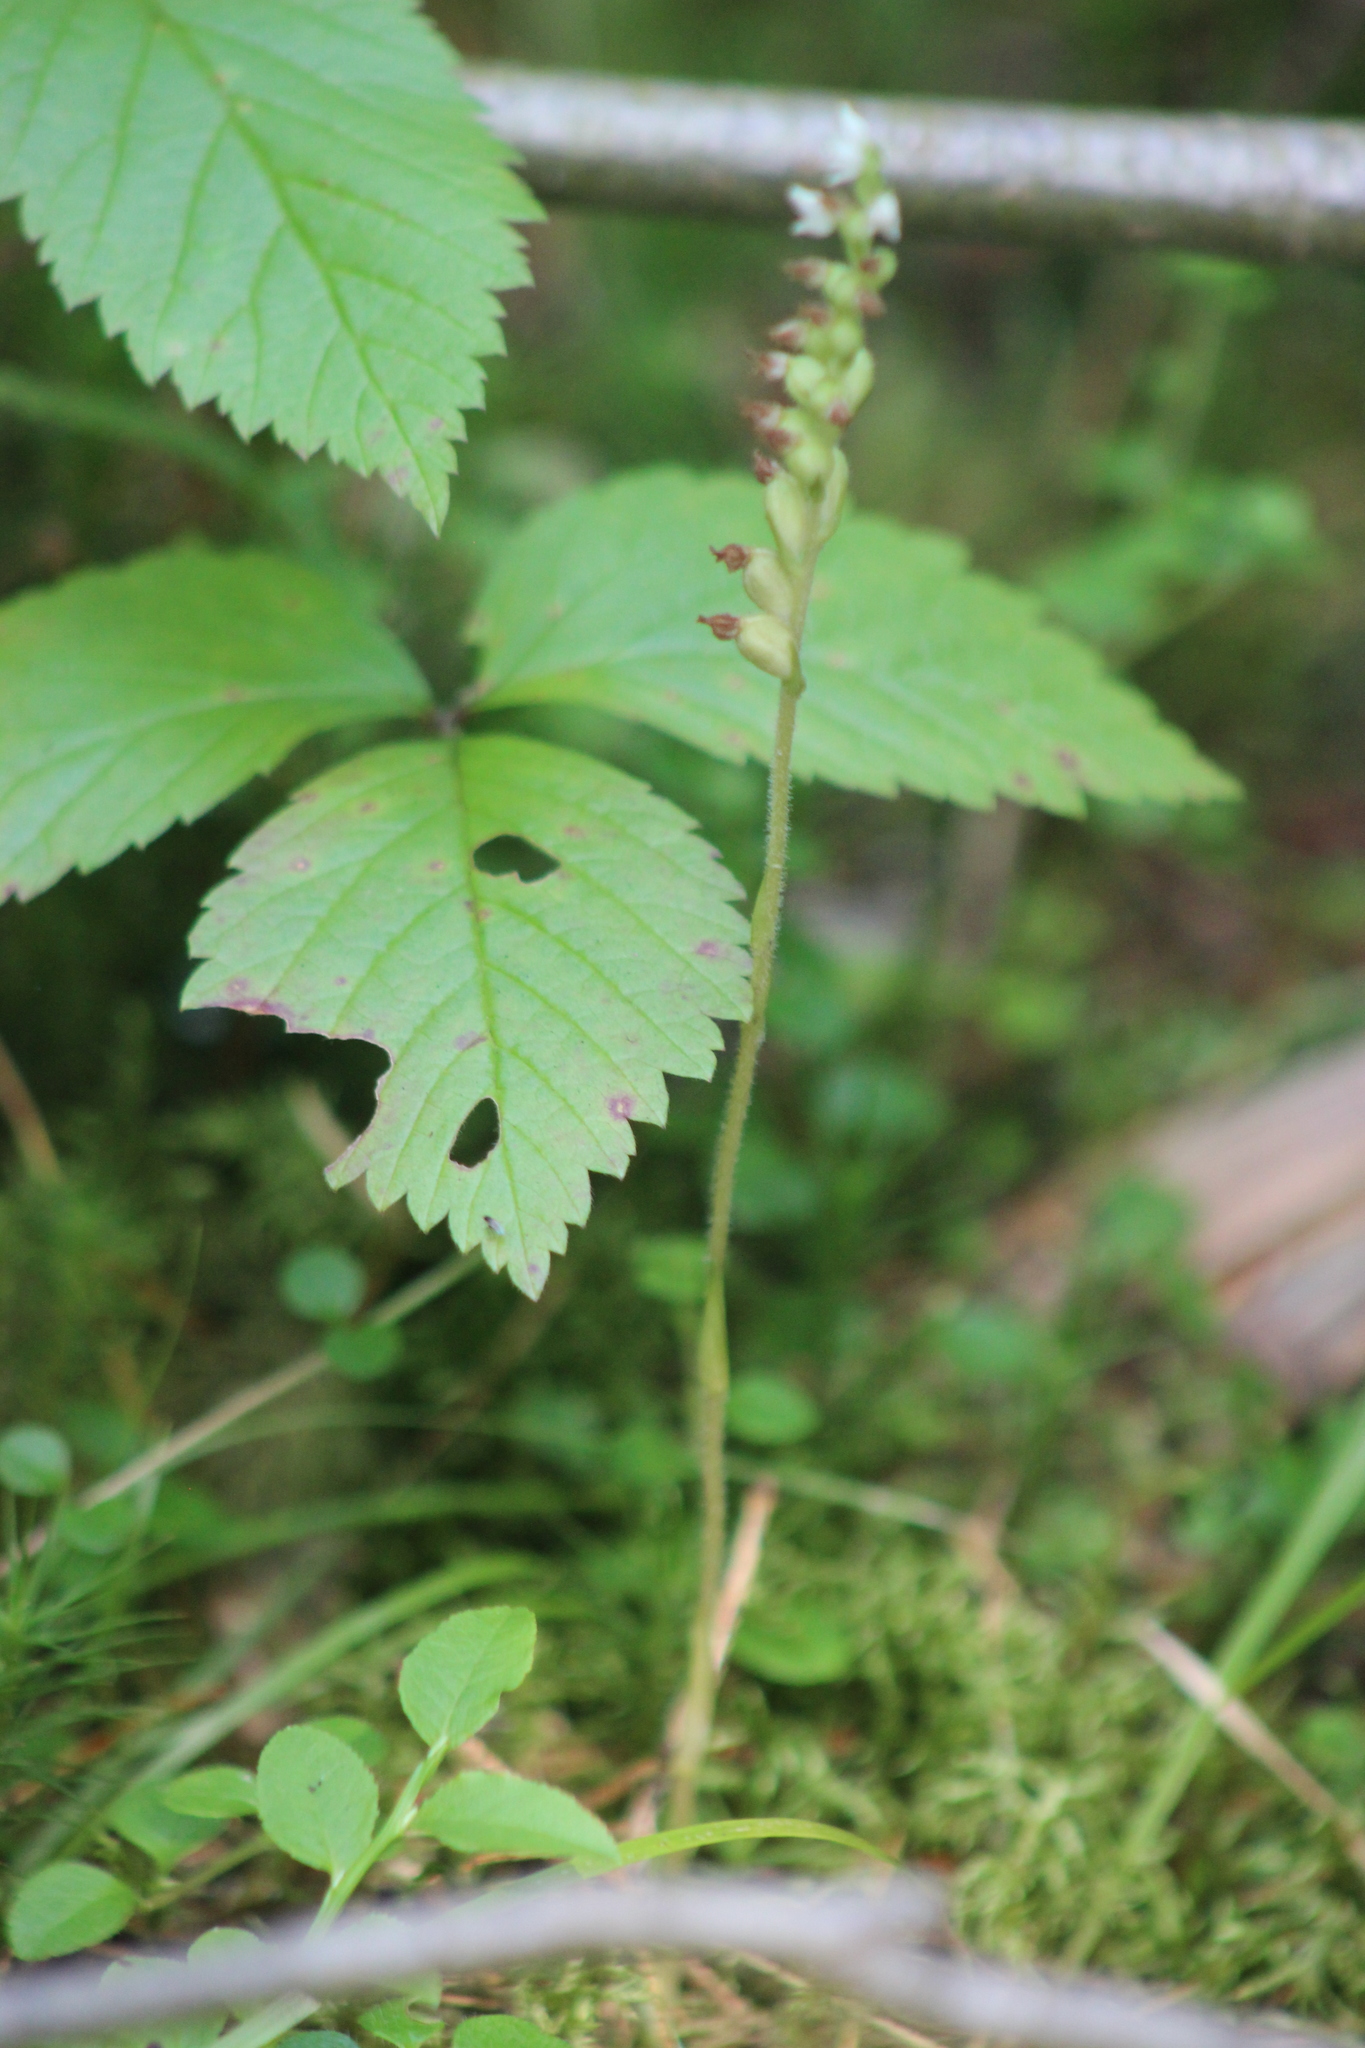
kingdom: Plantae
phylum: Tracheophyta
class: Liliopsida
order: Asparagales
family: Orchidaceae
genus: Goodyera
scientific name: Goodyera repens
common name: Creeping lady's-tresses
